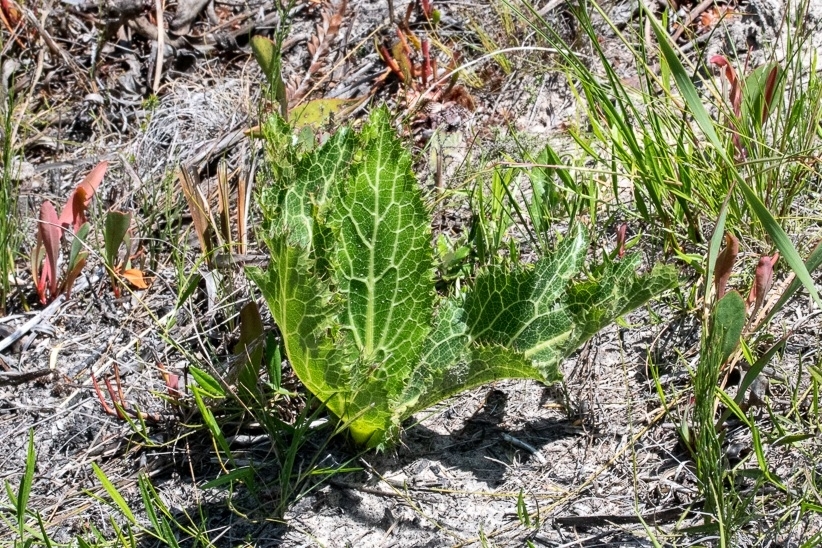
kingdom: Plantae
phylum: Tracheophyta
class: Magnoliopsida
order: Apiales
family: Apiaceae
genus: Lichtensteinia
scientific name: Lichtensteinia lacera
